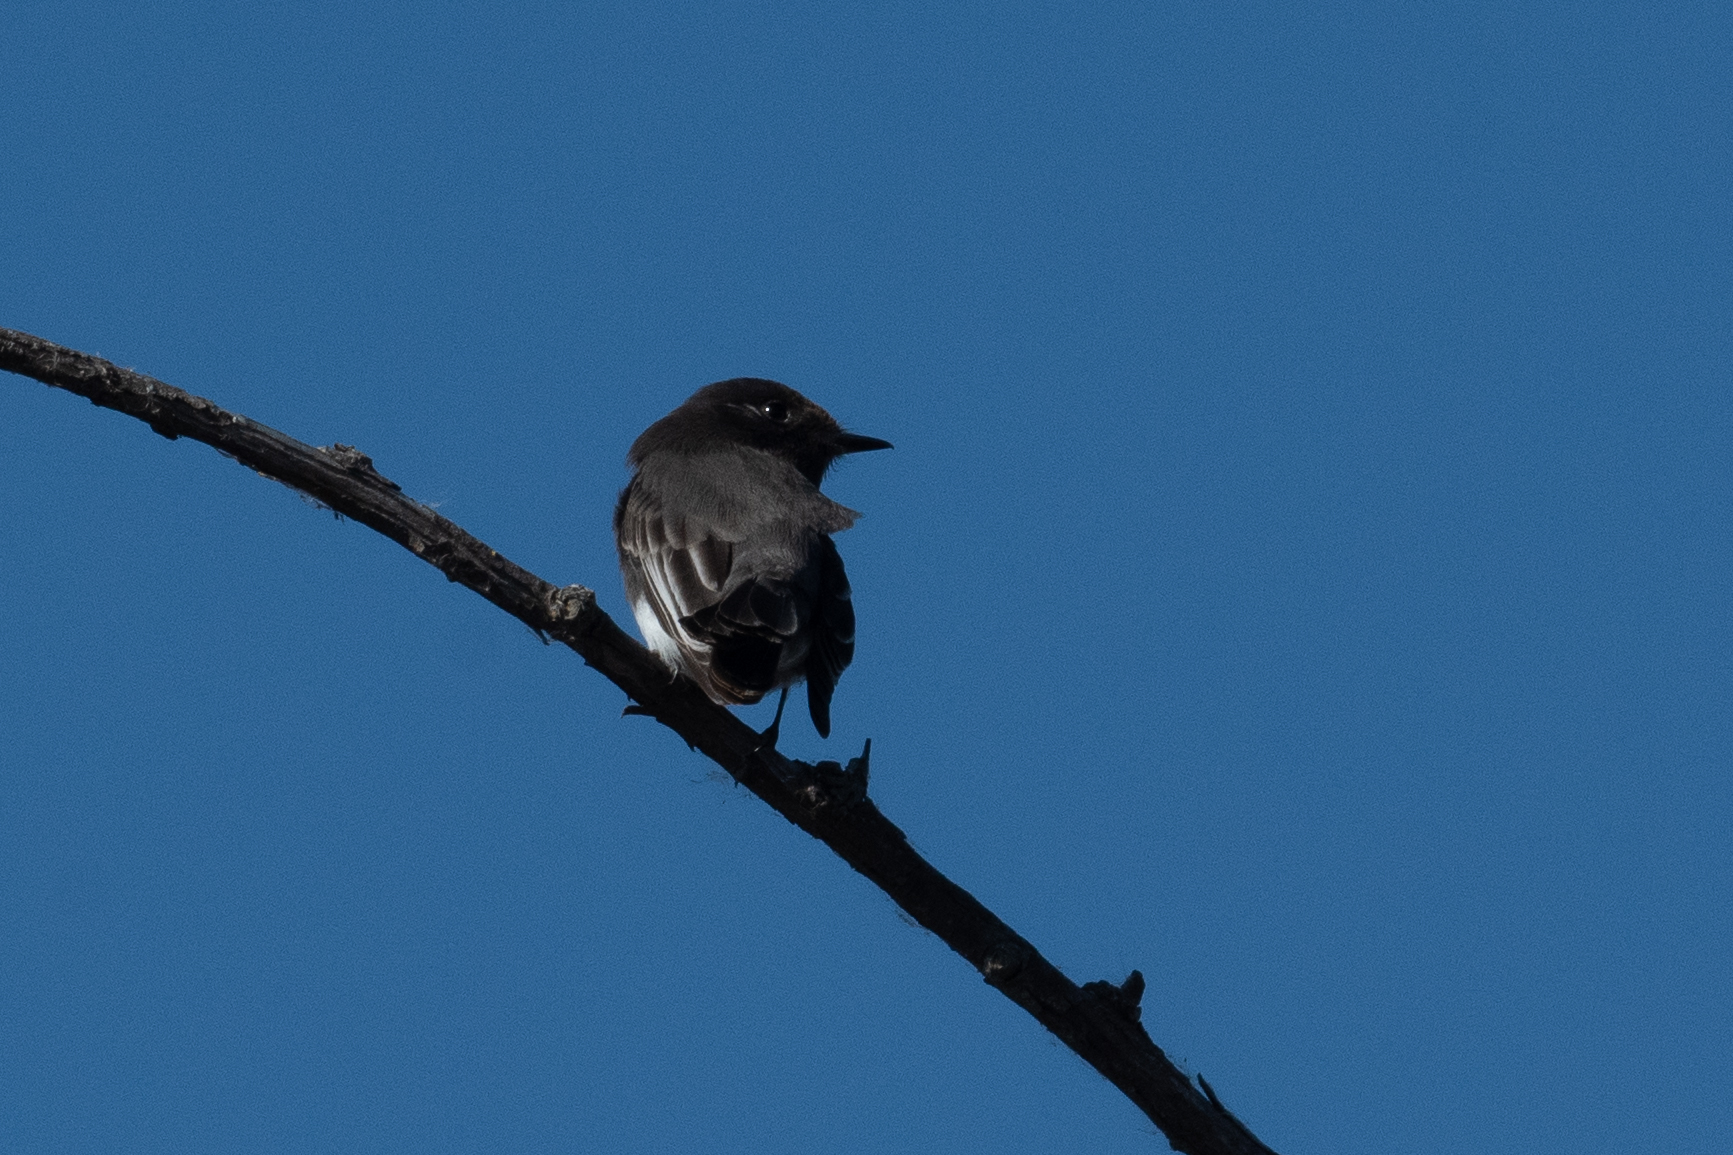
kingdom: Animalia
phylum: Chordata
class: Aves
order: Passeriformes
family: Tyrannidae
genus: Sayornis
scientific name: Sayornis nigricans
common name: Black phoebe
